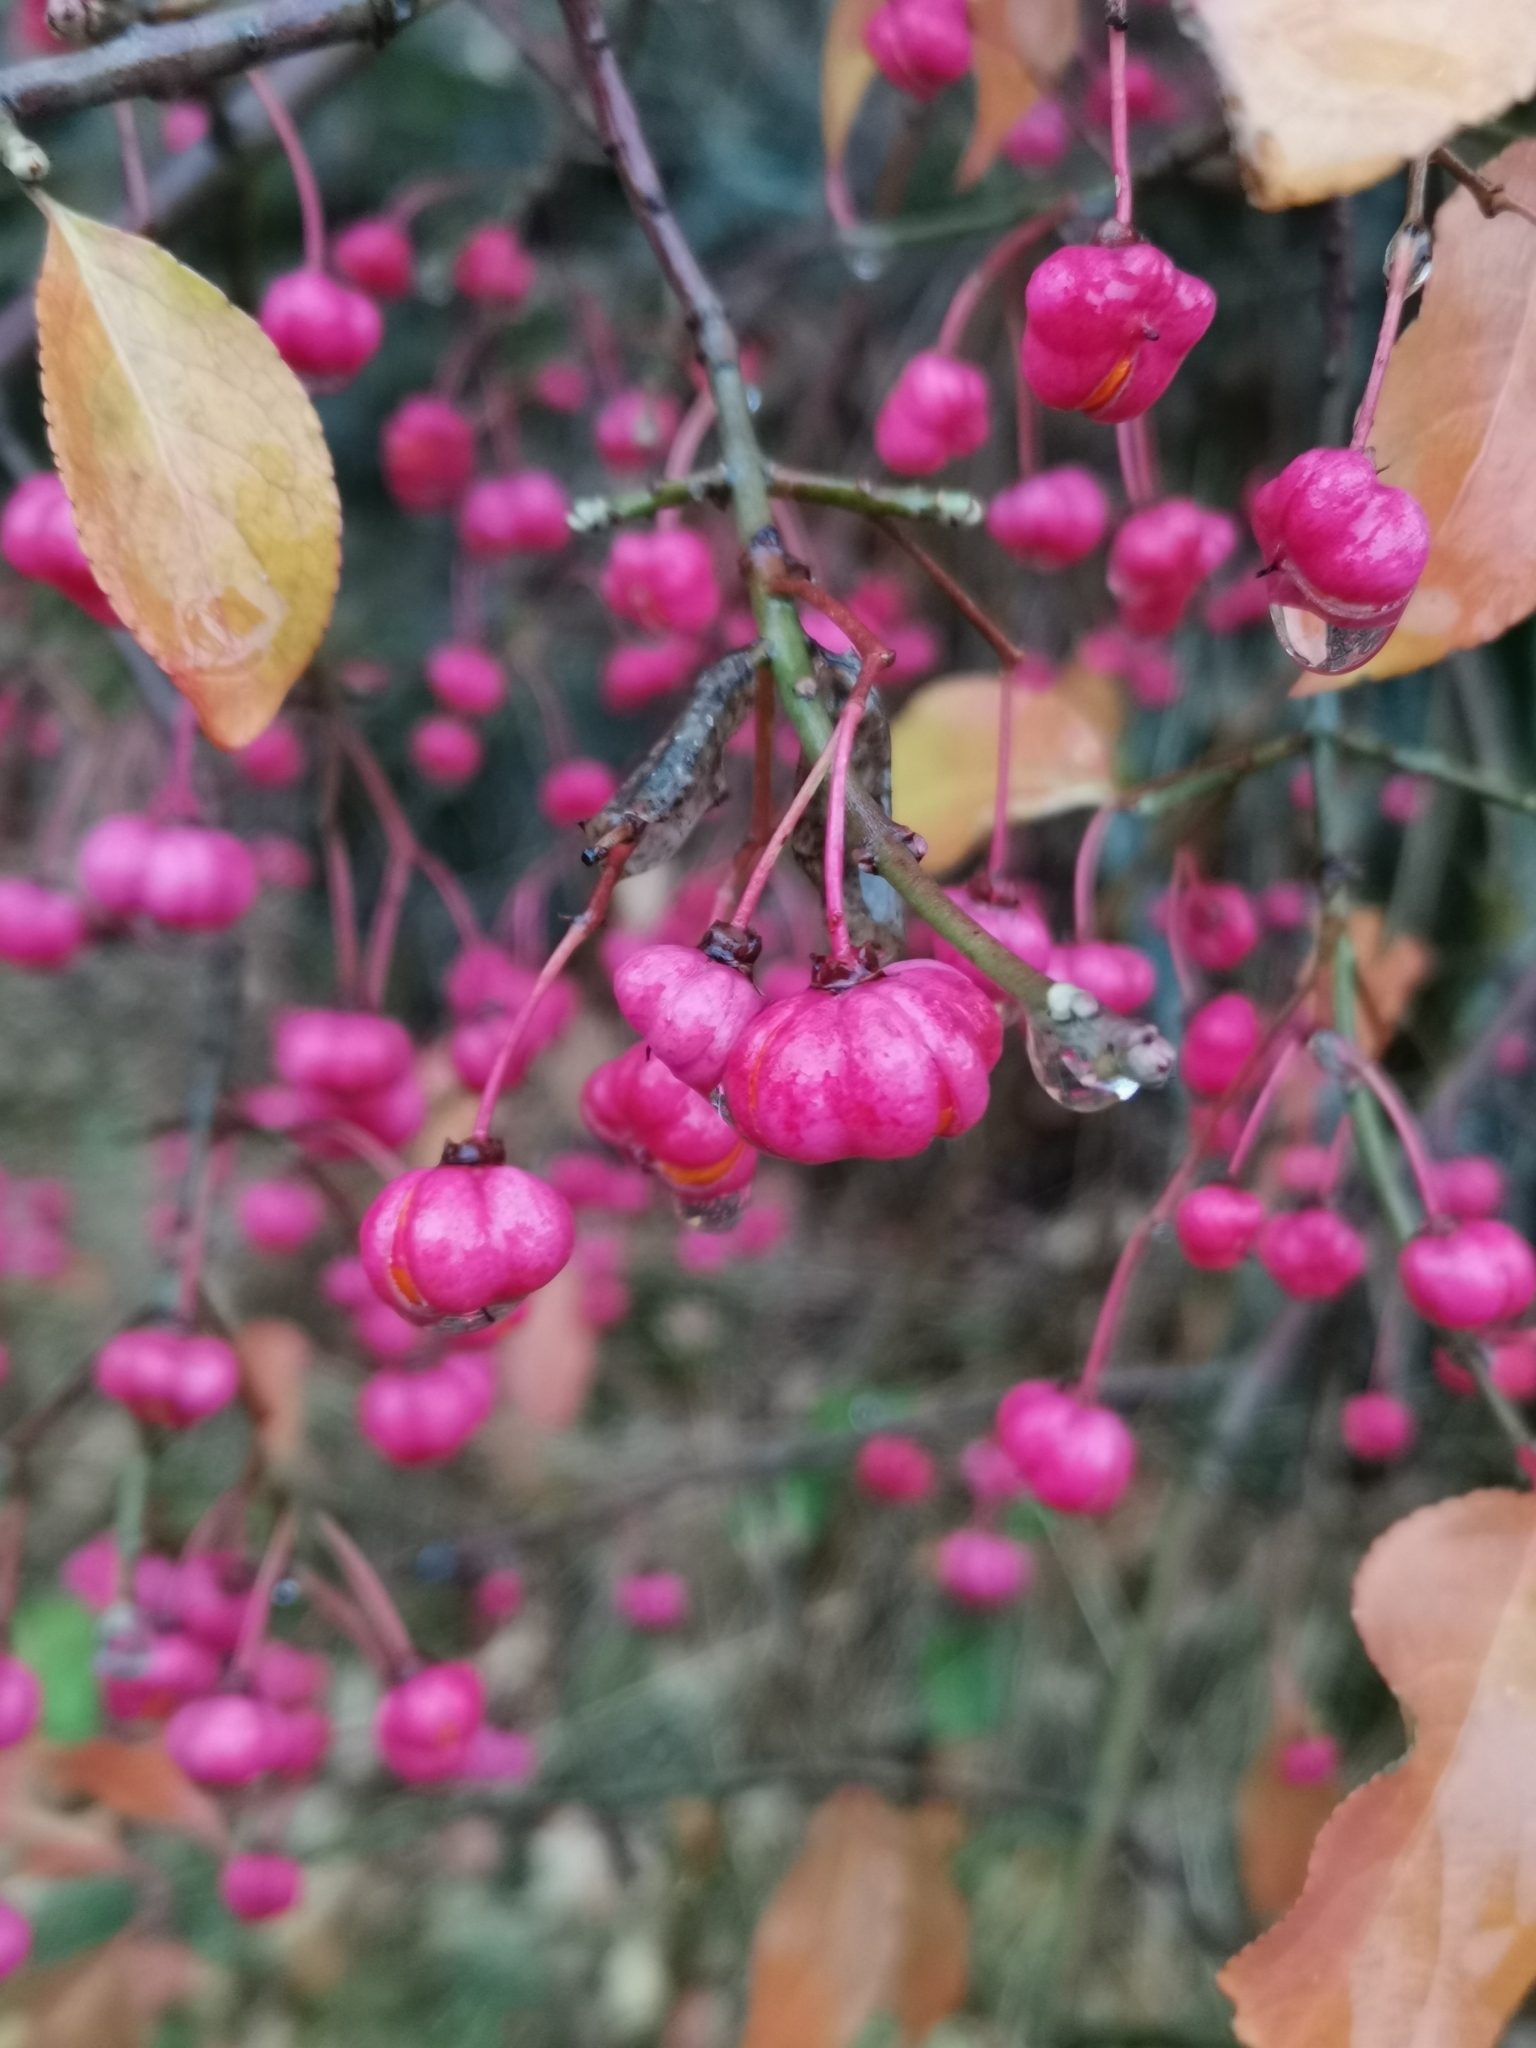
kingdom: Plantae
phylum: Tracheophyta
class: Magnoliopsida
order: Celastrales
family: Celastraceae
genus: Euonymus
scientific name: Euonymus europaeus
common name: Spindle
